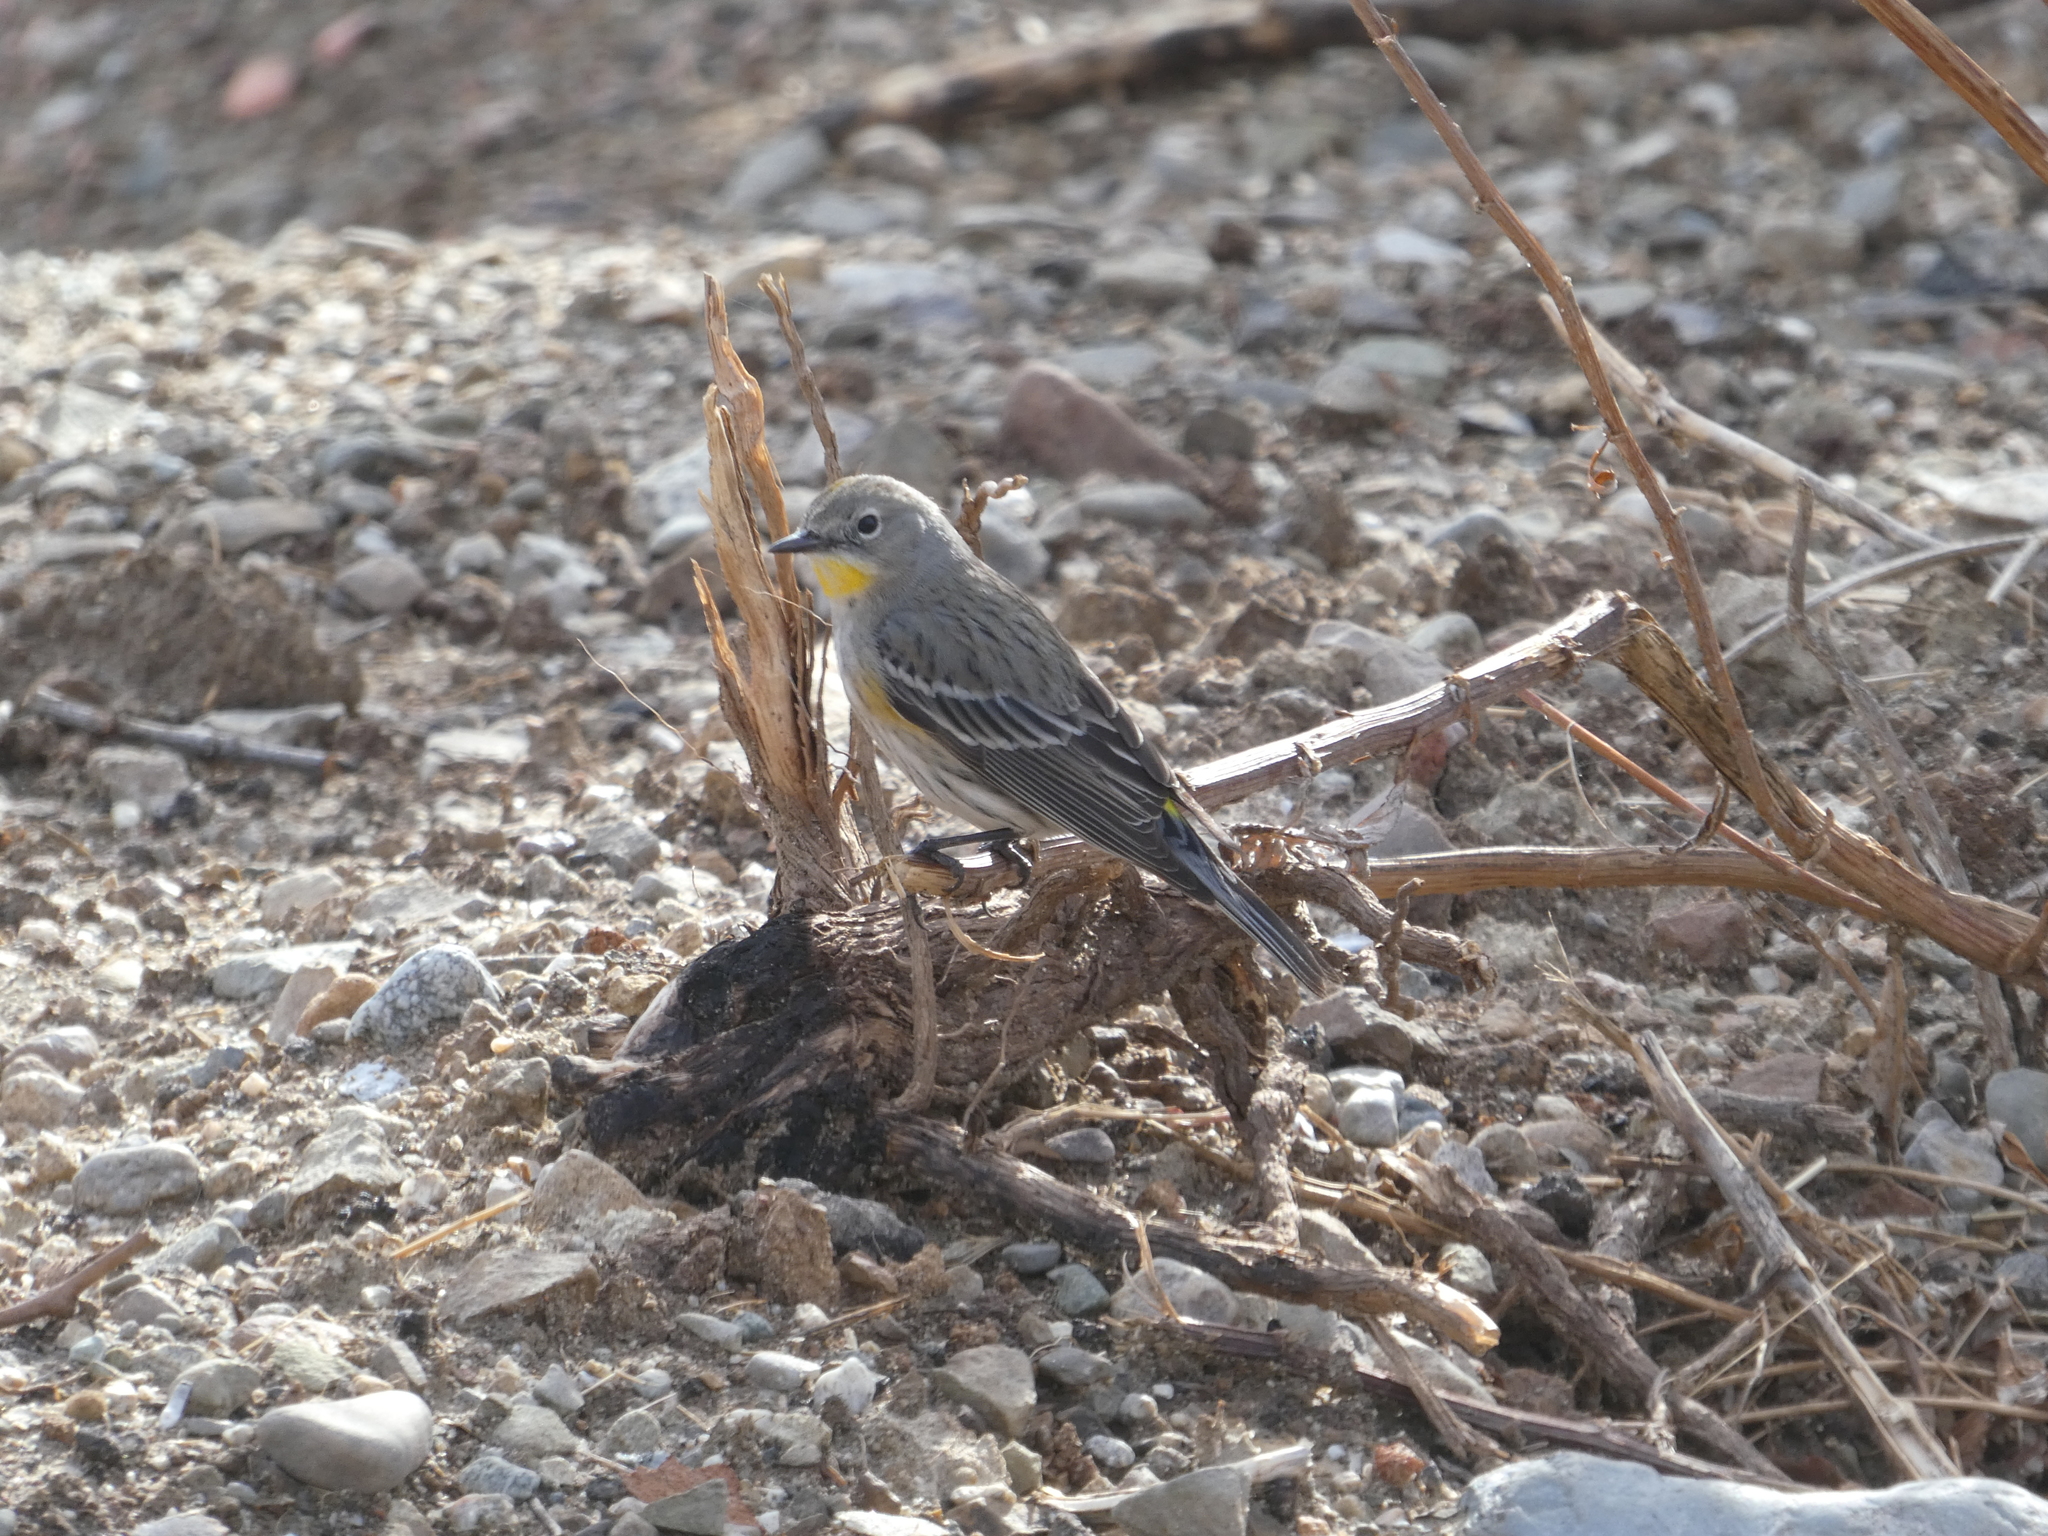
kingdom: Animalia
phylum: Chordata
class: Aves
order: Passeriformes
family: Parulidae
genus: Setophaga
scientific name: Setophaga coronata
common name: Myrtle warbler
